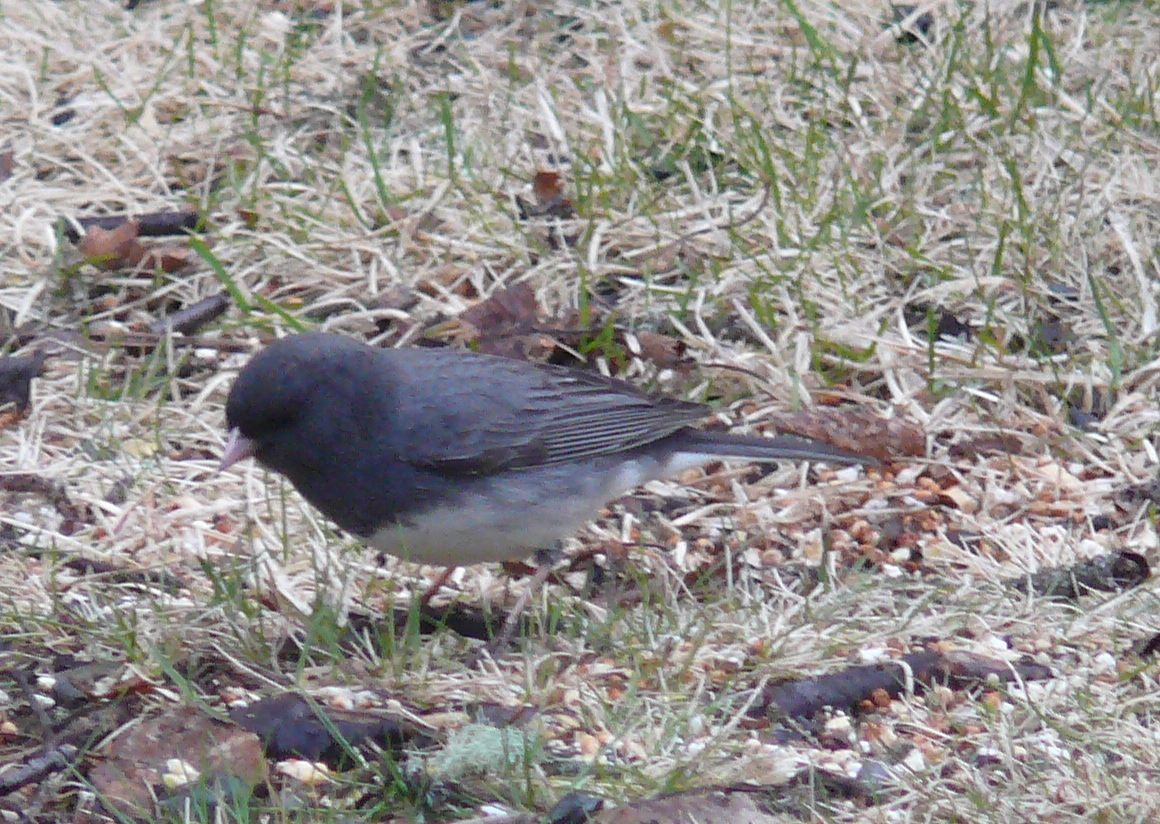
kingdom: Animalia
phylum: Chordata
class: Aves
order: Passeriformes
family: Passerellidae
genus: Junco
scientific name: Junco hyemalis
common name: Dark-eyed junco
